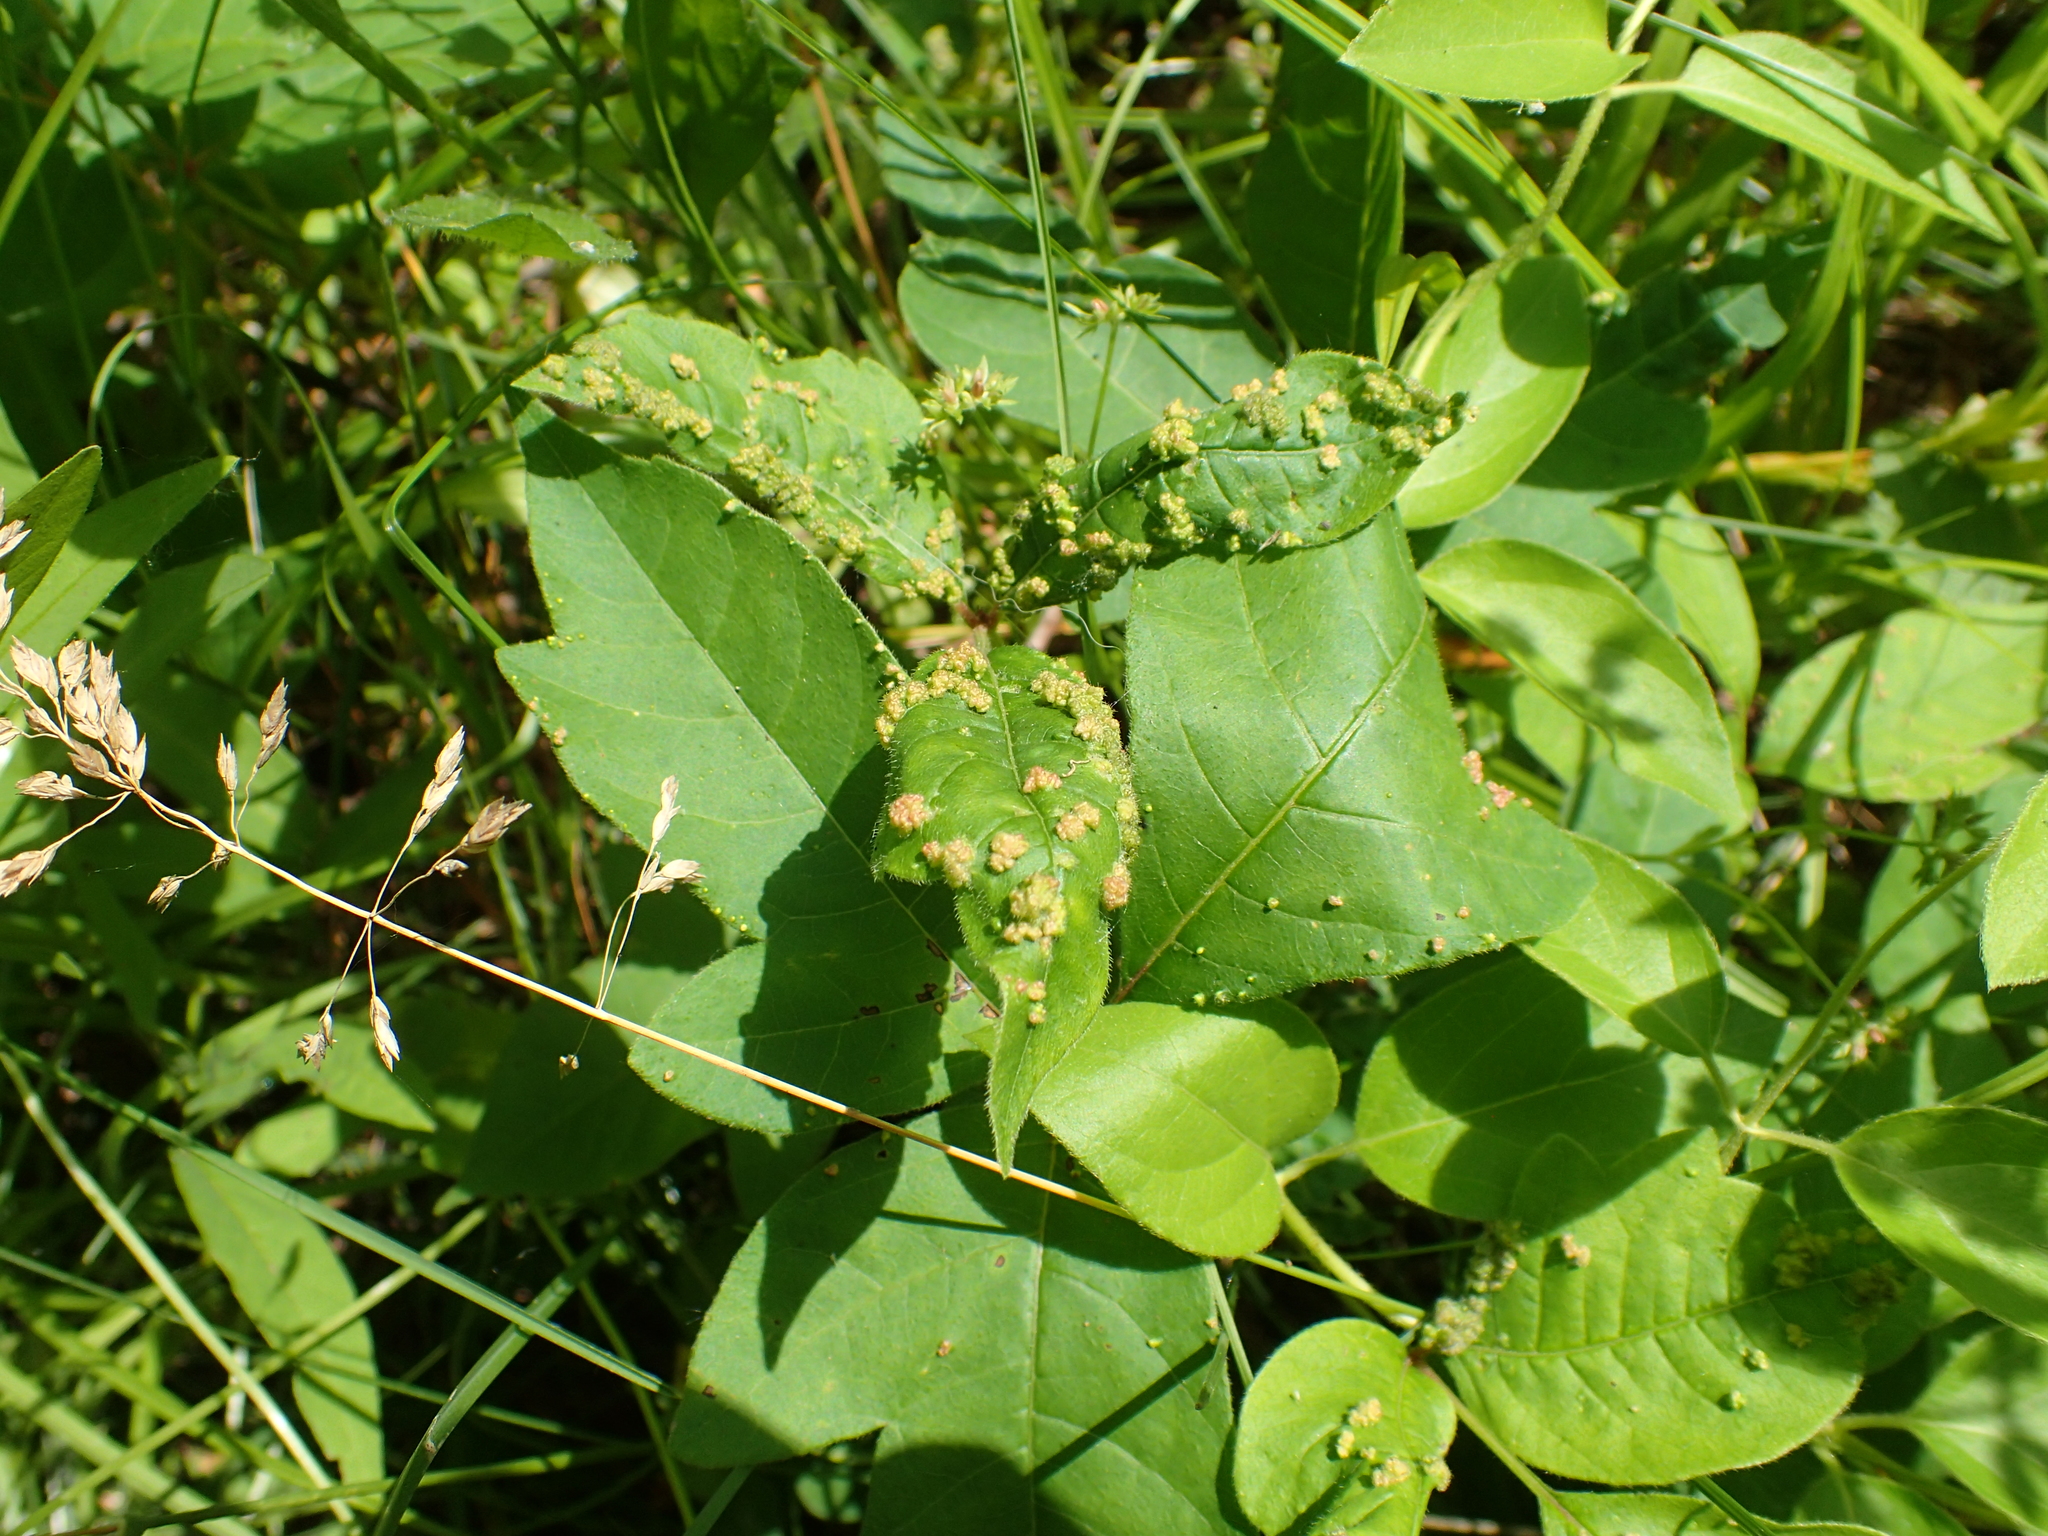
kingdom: Animalia
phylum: Arthropoda
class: Arachnida
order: Trombidiformes
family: Eriophyidae
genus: Aculops
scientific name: Aculops
